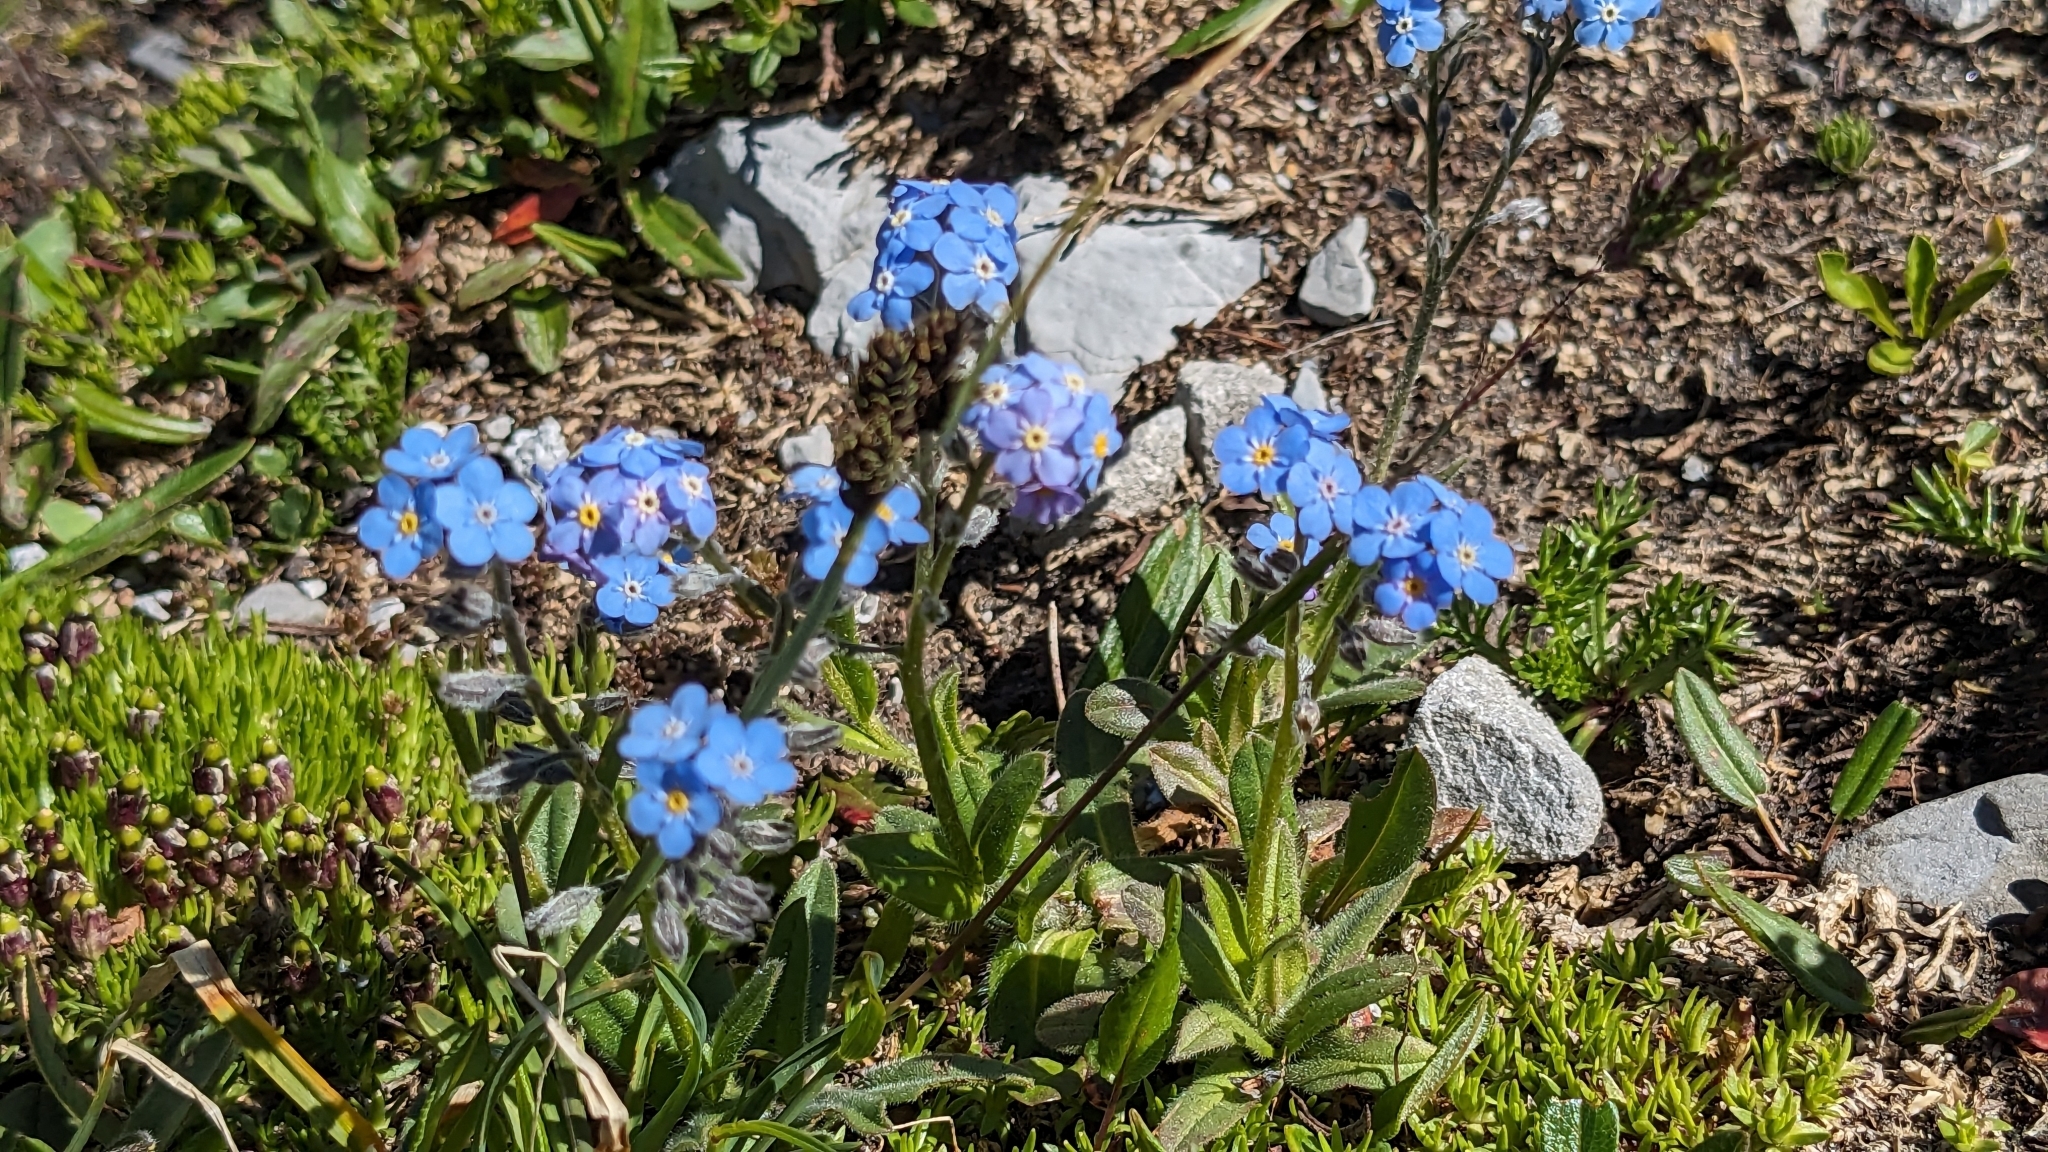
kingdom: Plantae
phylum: Tracheophyta
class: Magnoliopsida
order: Boraginales
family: Boraginaceae
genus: Myosotis
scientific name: Myosotis alpestris
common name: Alpine forget-me-not
